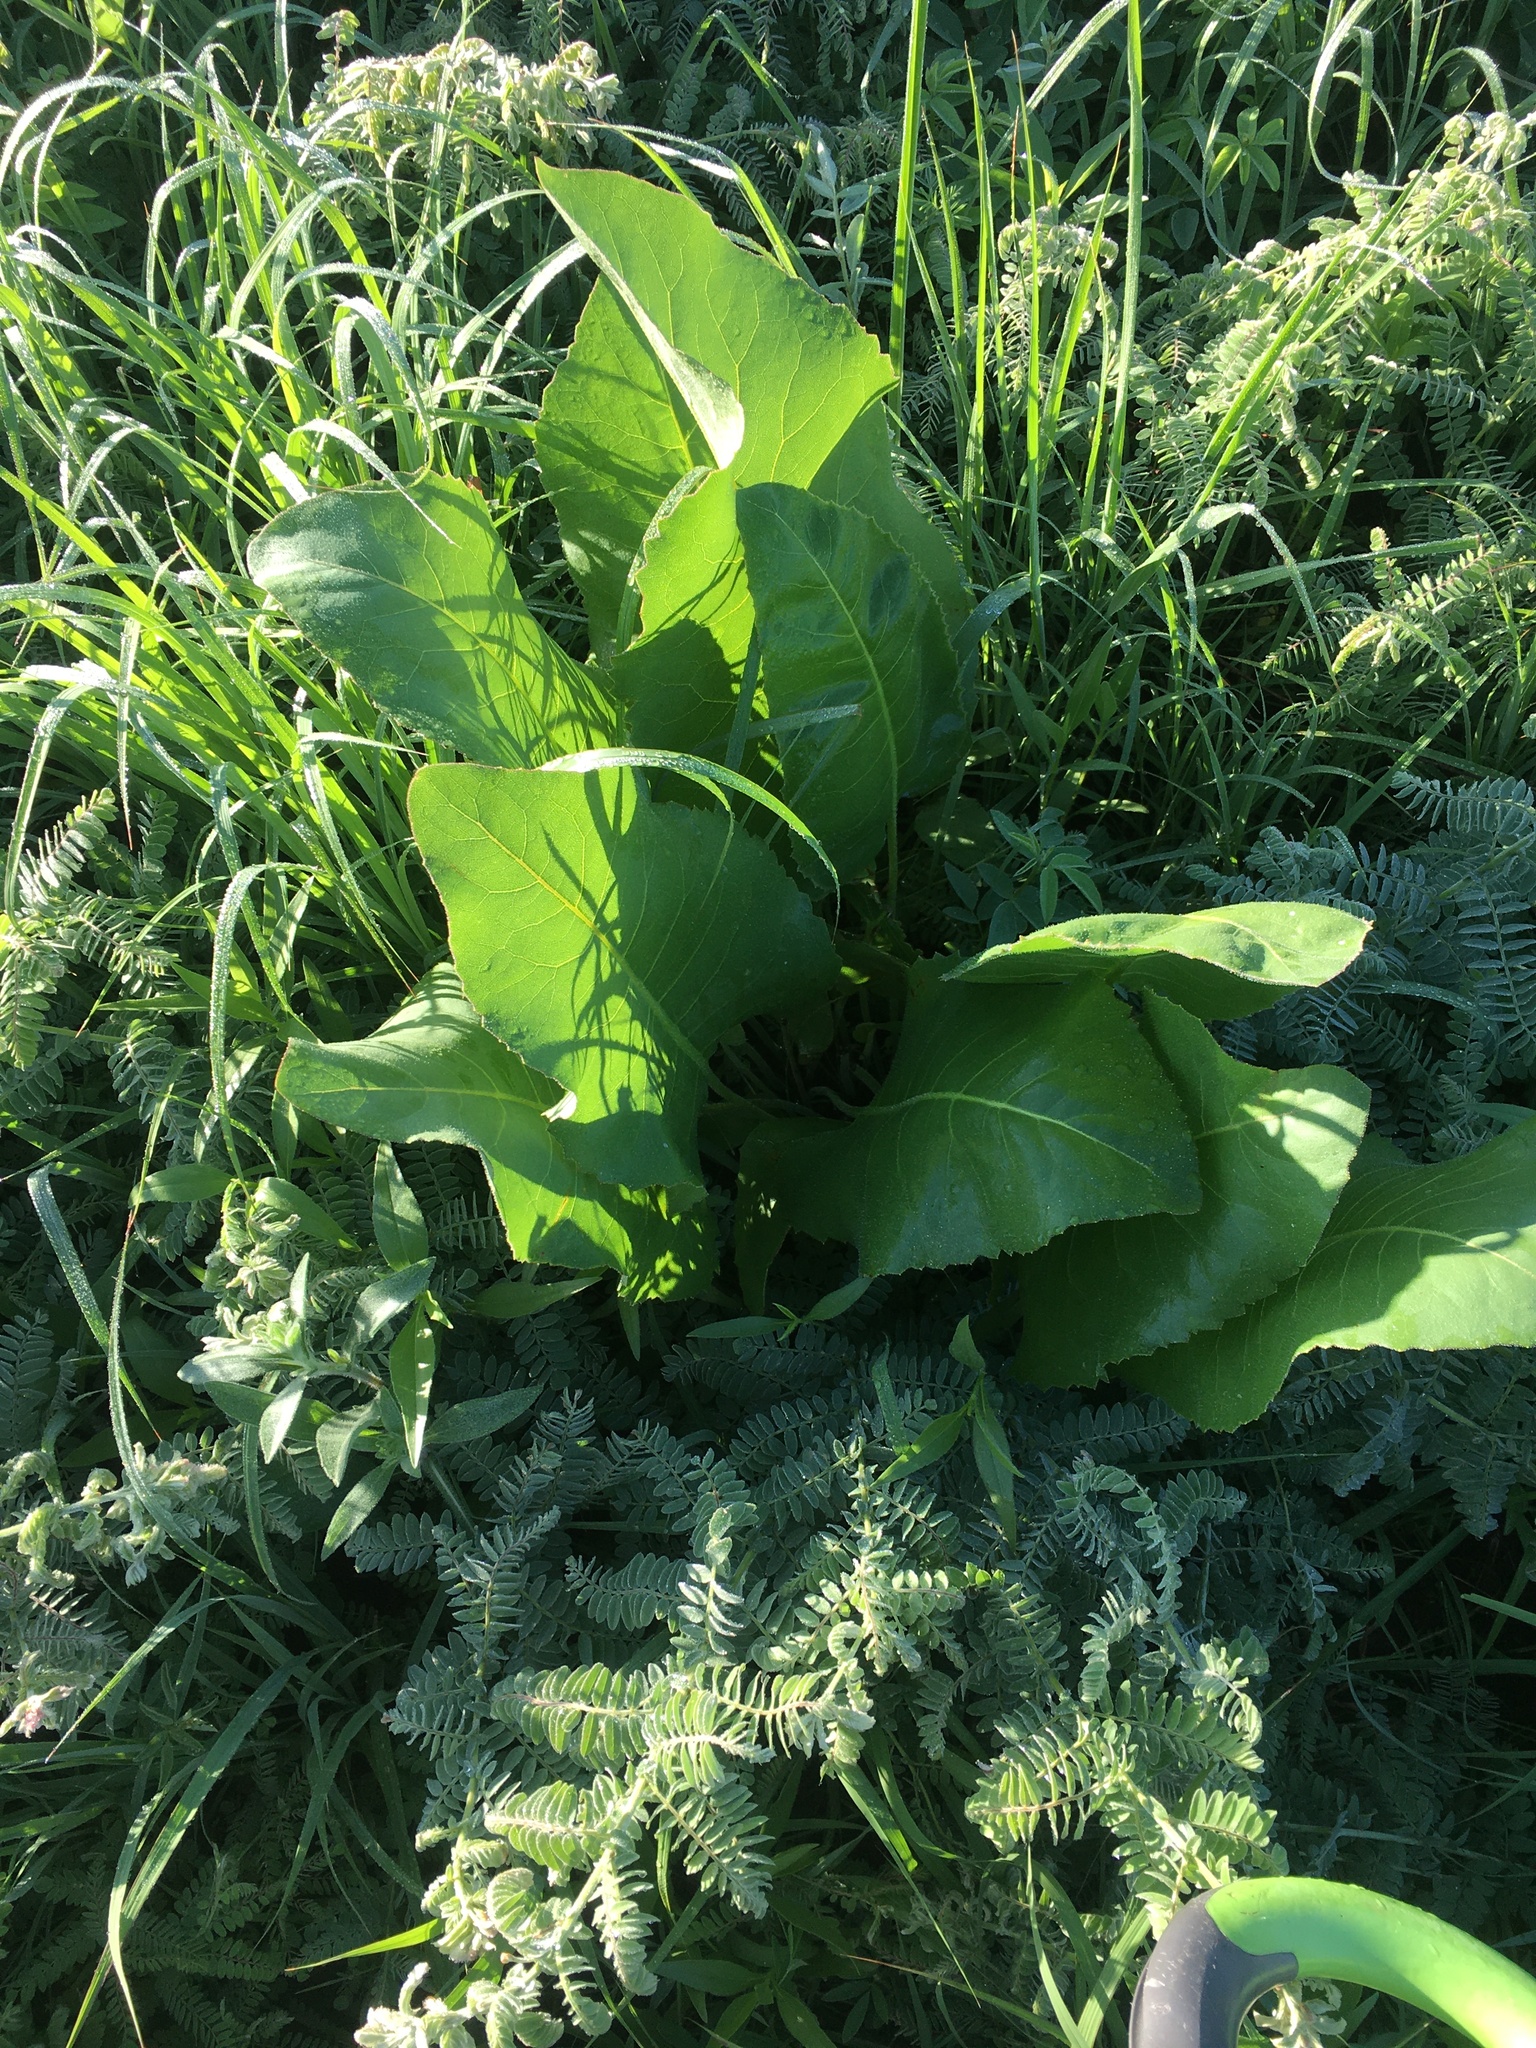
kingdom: Plantae
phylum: Tracheophyta
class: Magnoliopsida
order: Asterales
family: Asteraceae
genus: Silphium
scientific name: Silphium terebinthinaceum
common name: Basal-leaf rosinweed
